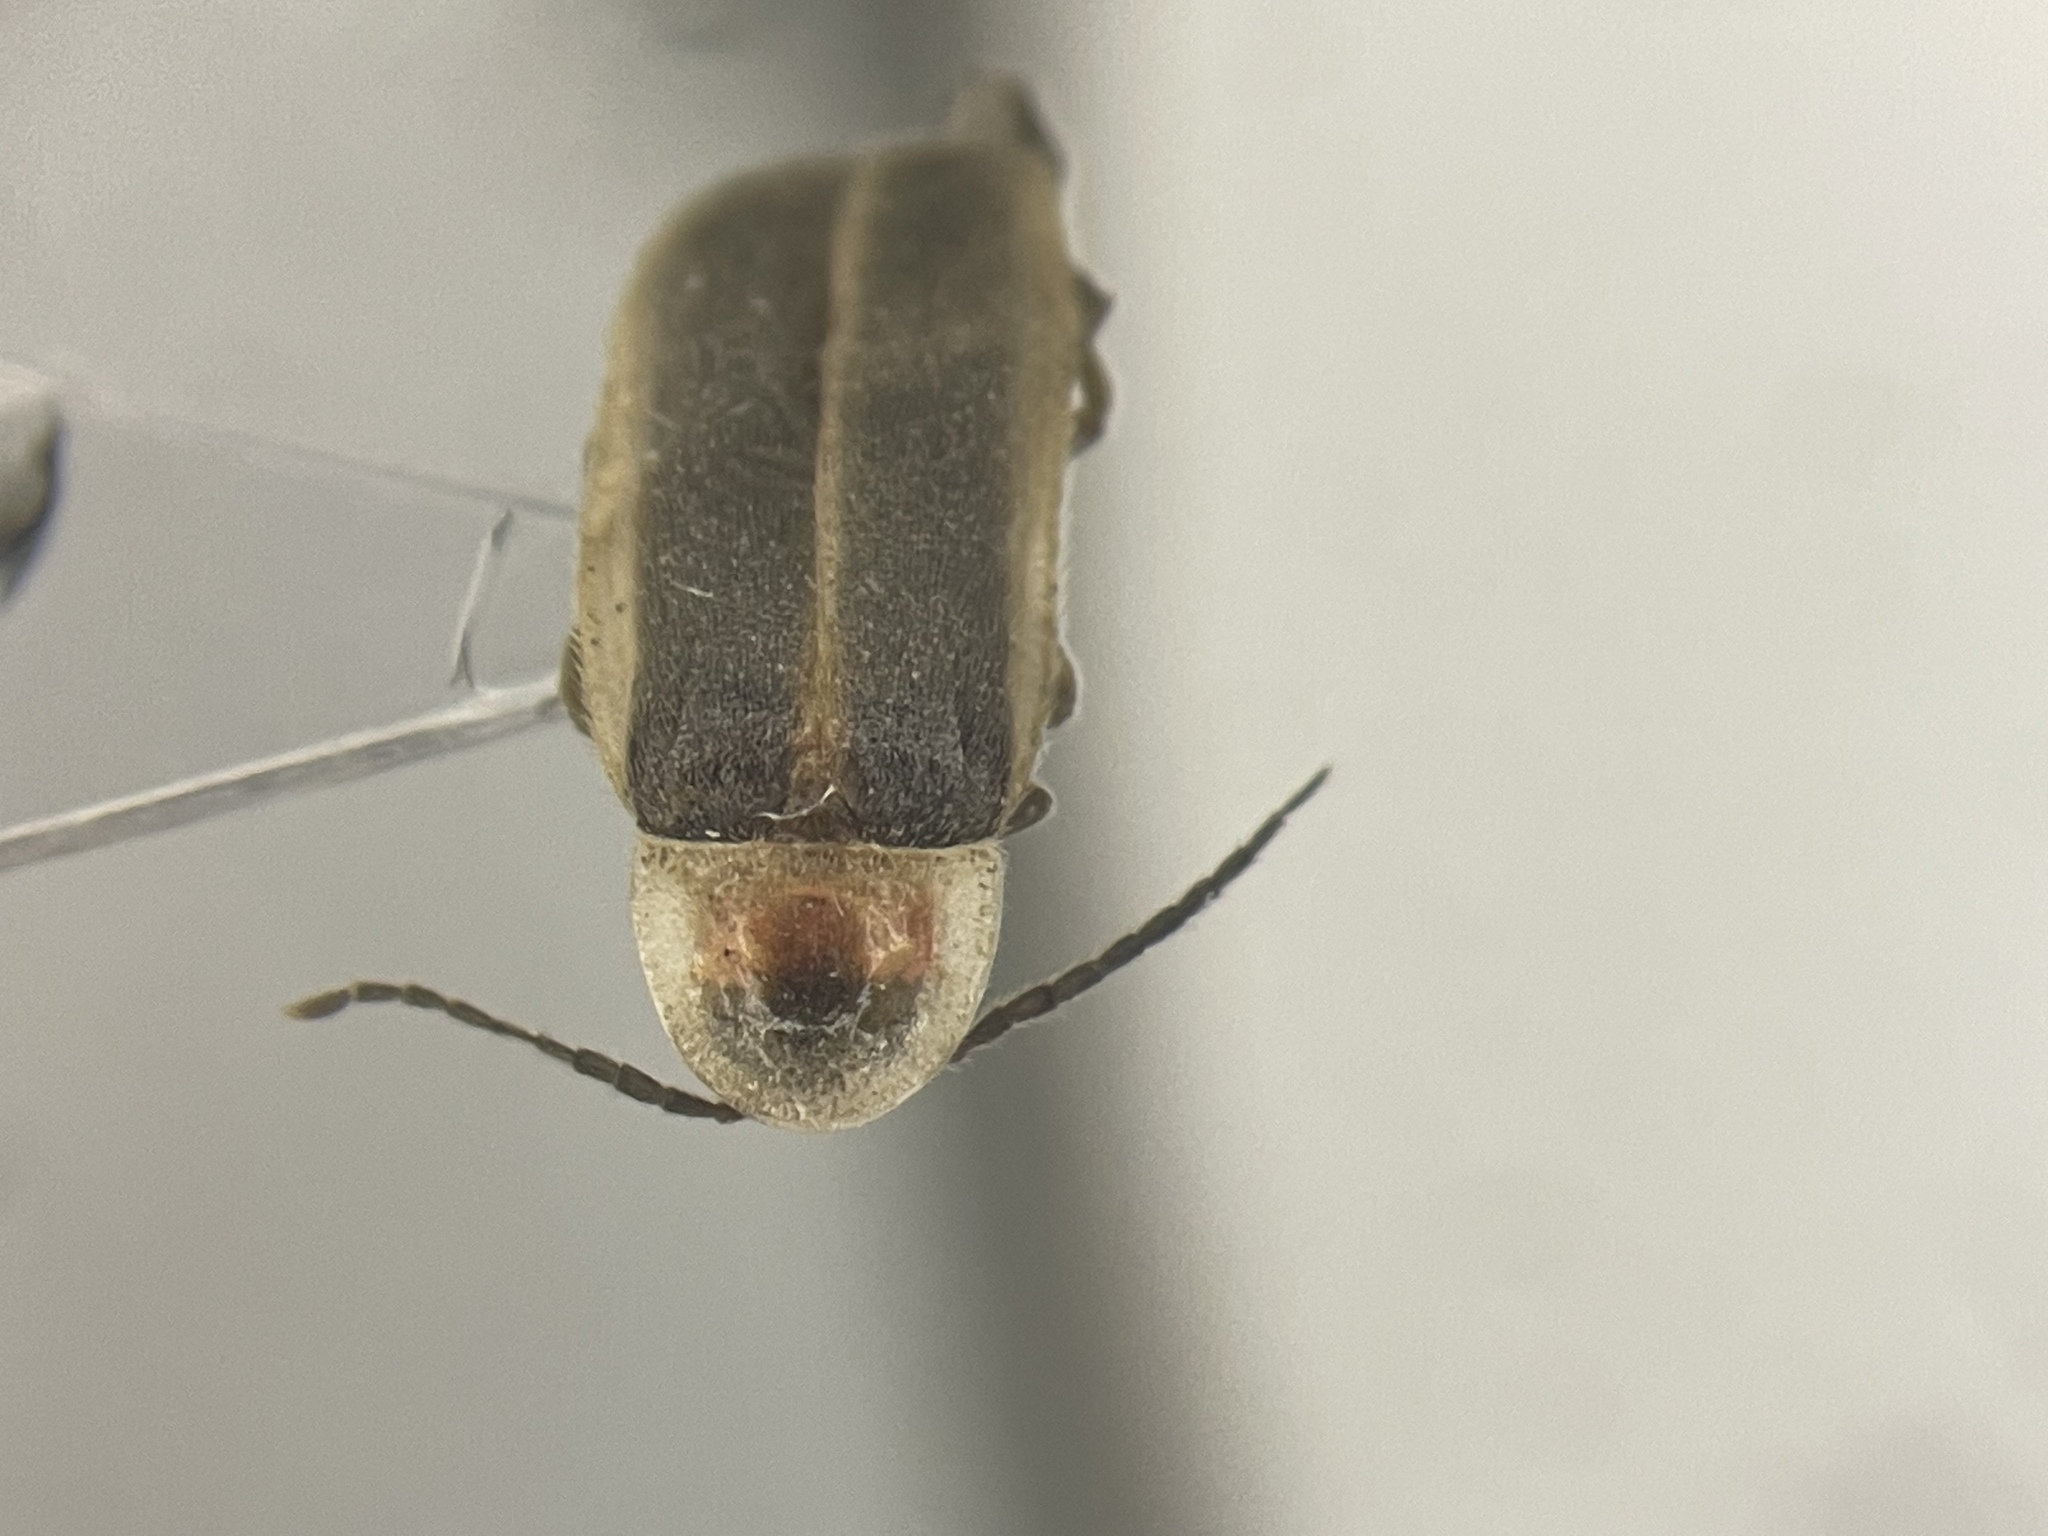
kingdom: Animalia
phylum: Arthropoda
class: Insecta
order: Coleoptera
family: Lampyridae
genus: Photinus
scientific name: Photinus marginellus
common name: Little gray firefly
